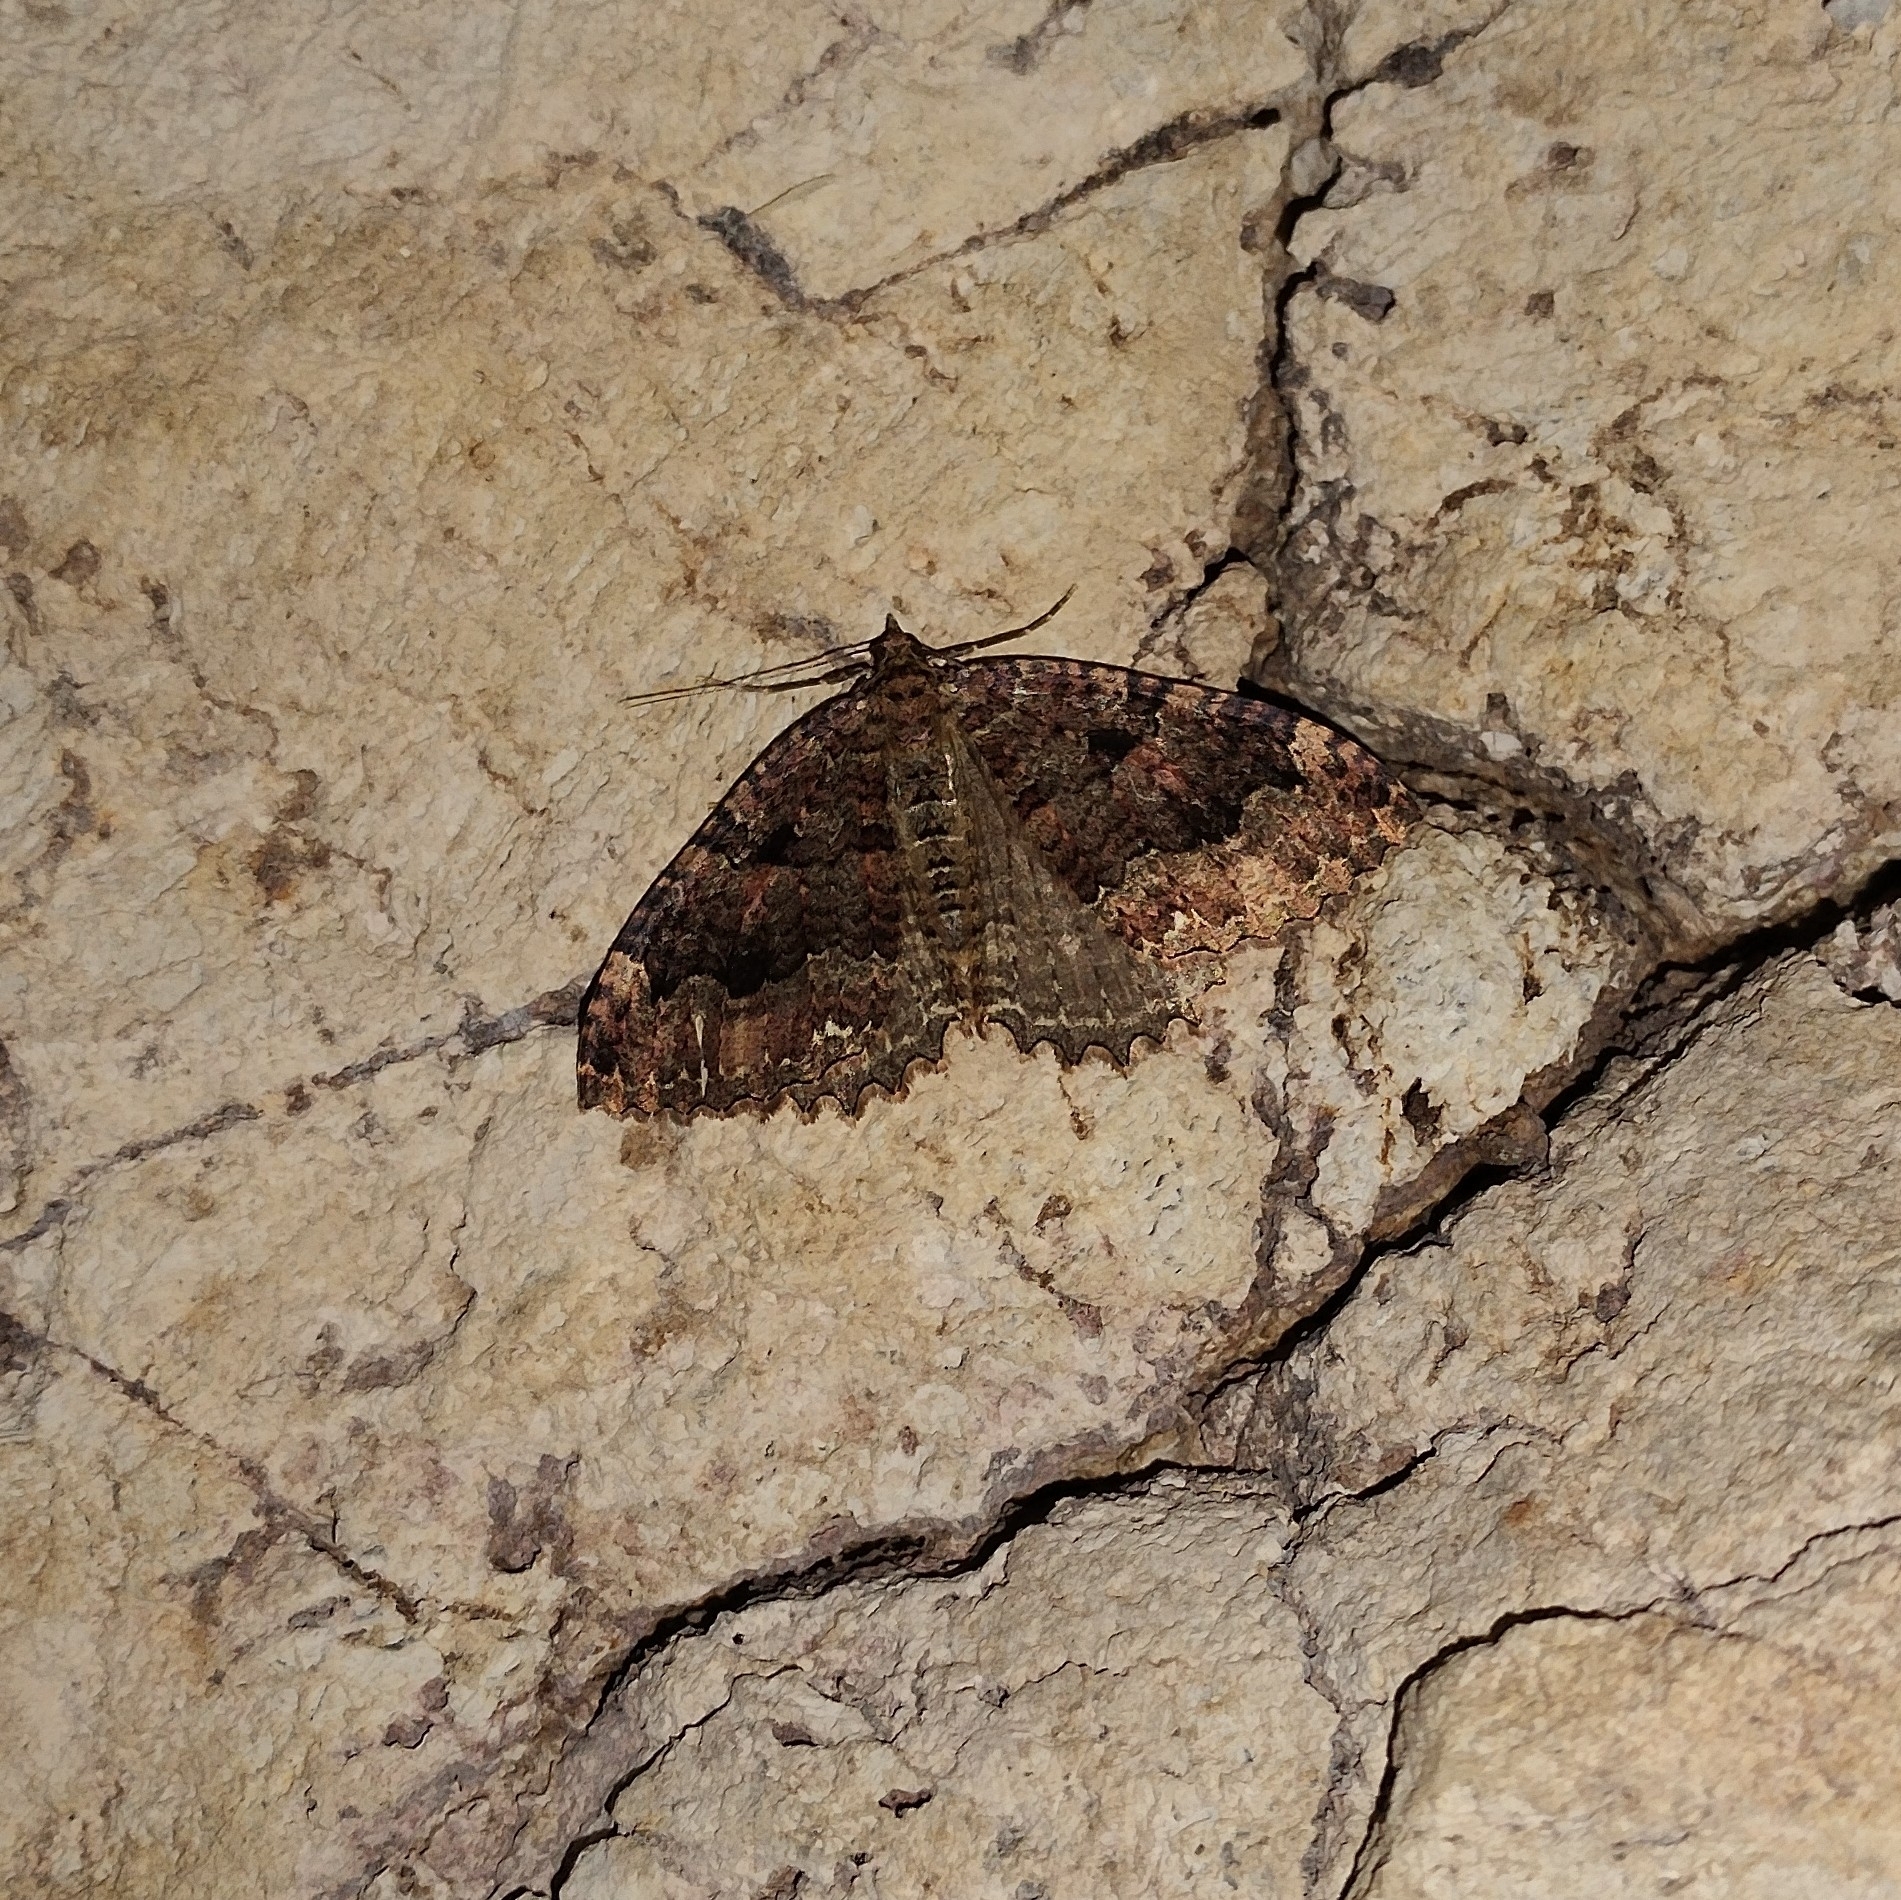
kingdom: Animalia
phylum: Arthropoda
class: Insecta
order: Lepidoptera
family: Geometridae
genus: Triphosa
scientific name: Triphosa dubitata
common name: Tissue
